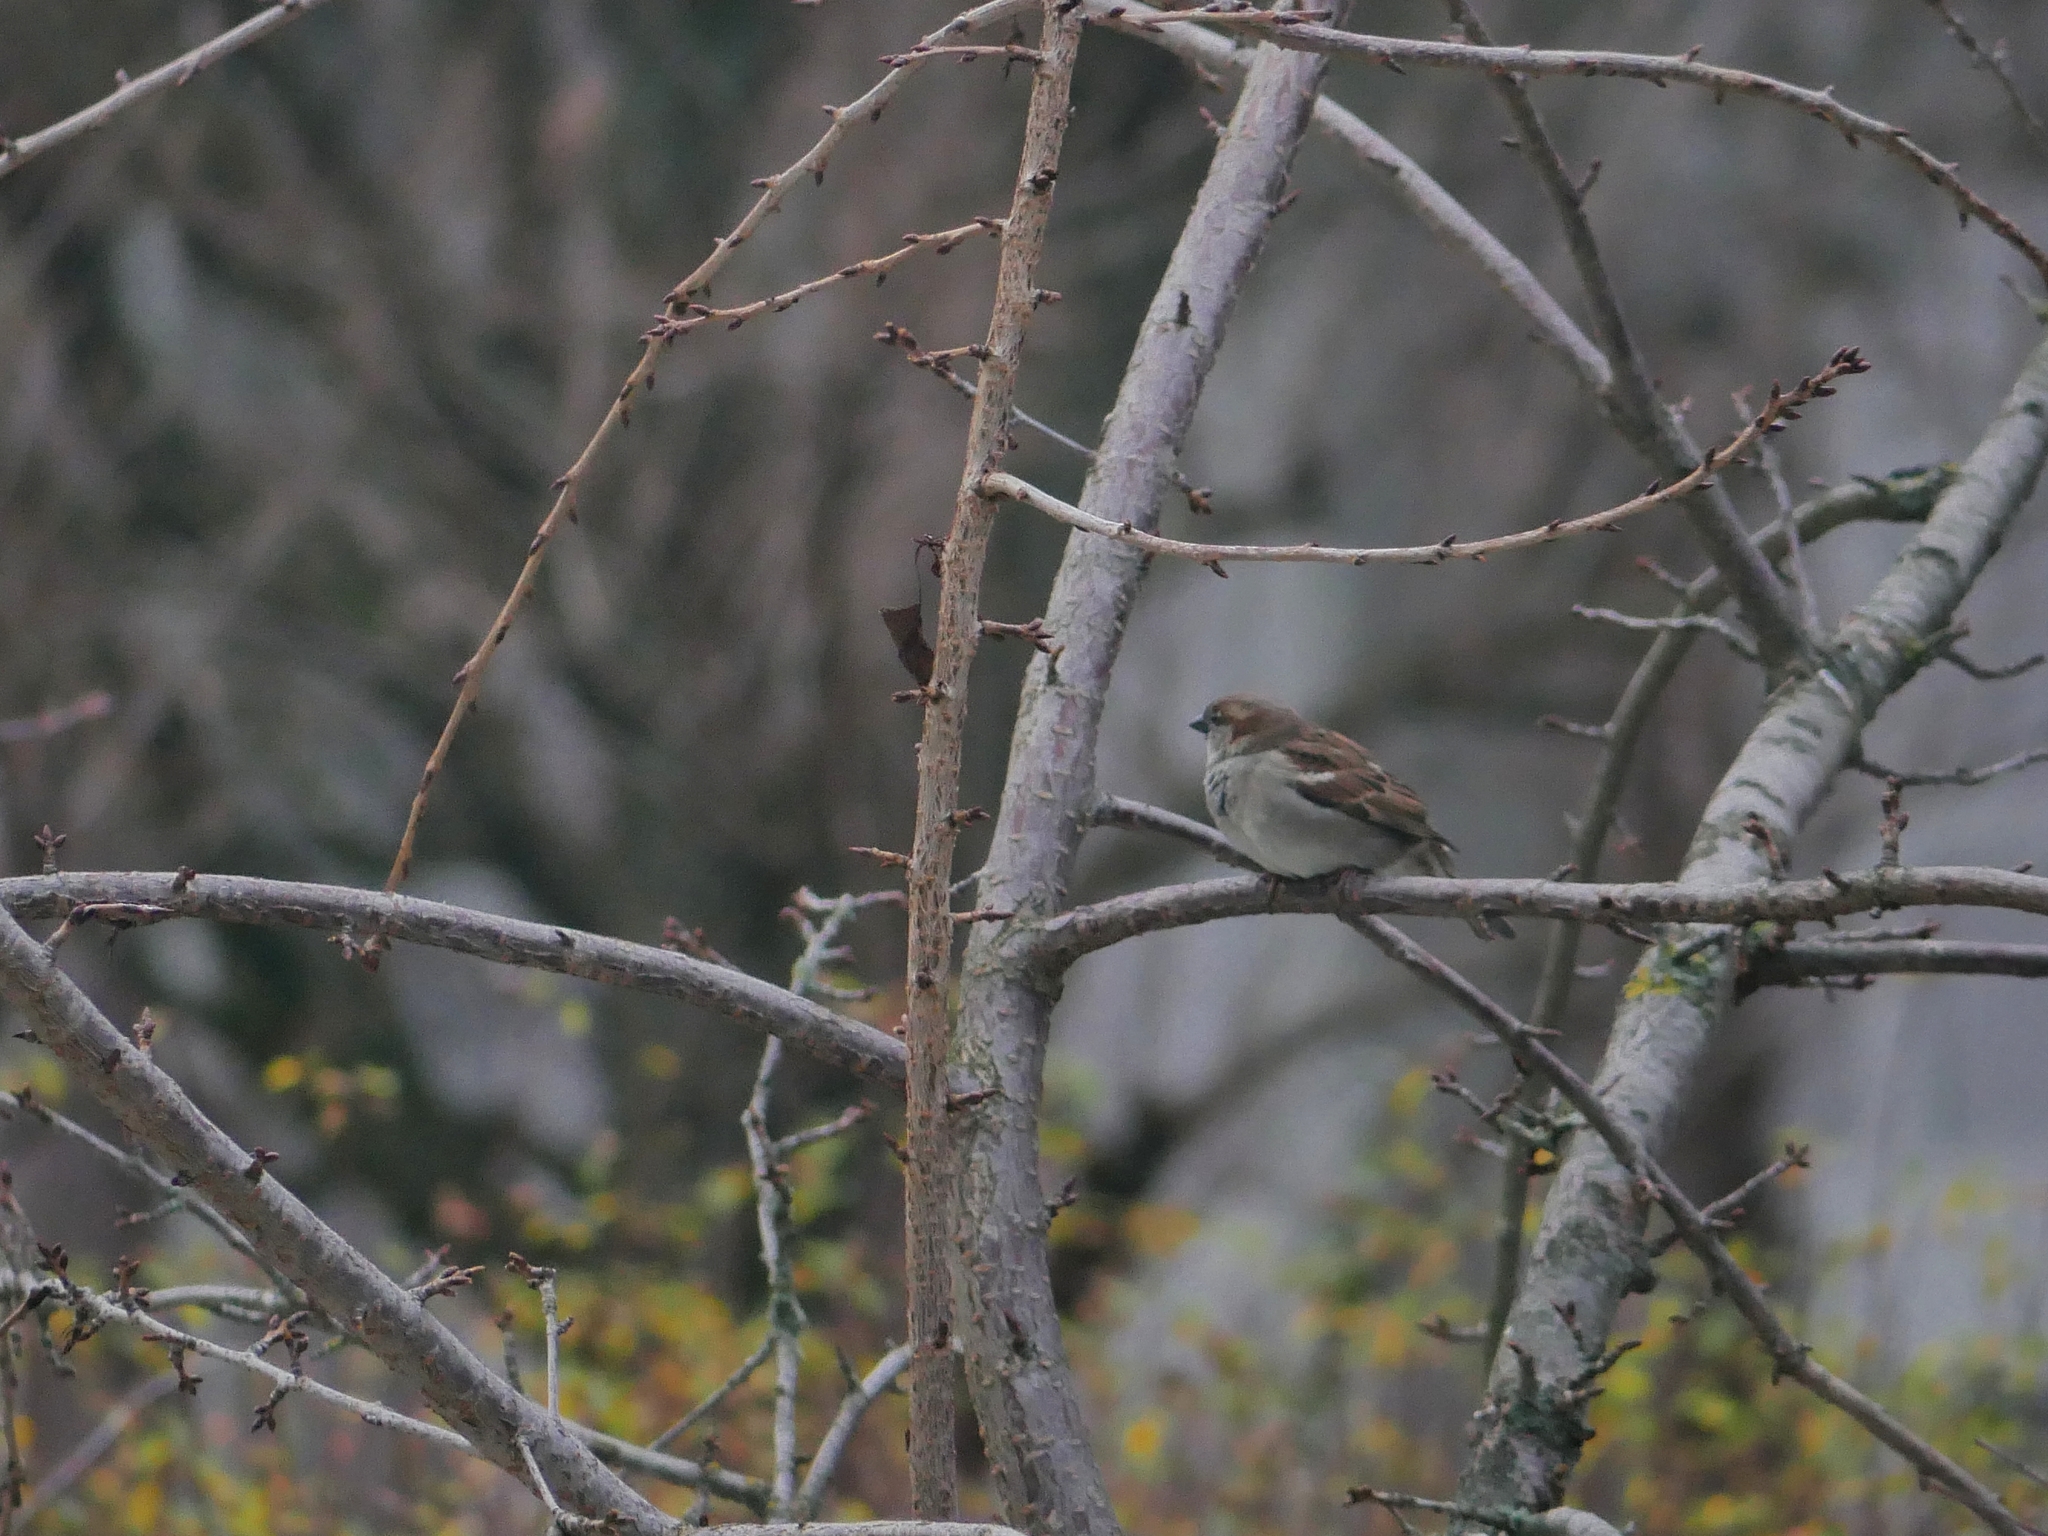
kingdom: Animalia
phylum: Chordata
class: Aves
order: Passeriformes
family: Passeridae
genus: Passer
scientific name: Passer domesticus
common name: House sparrow
